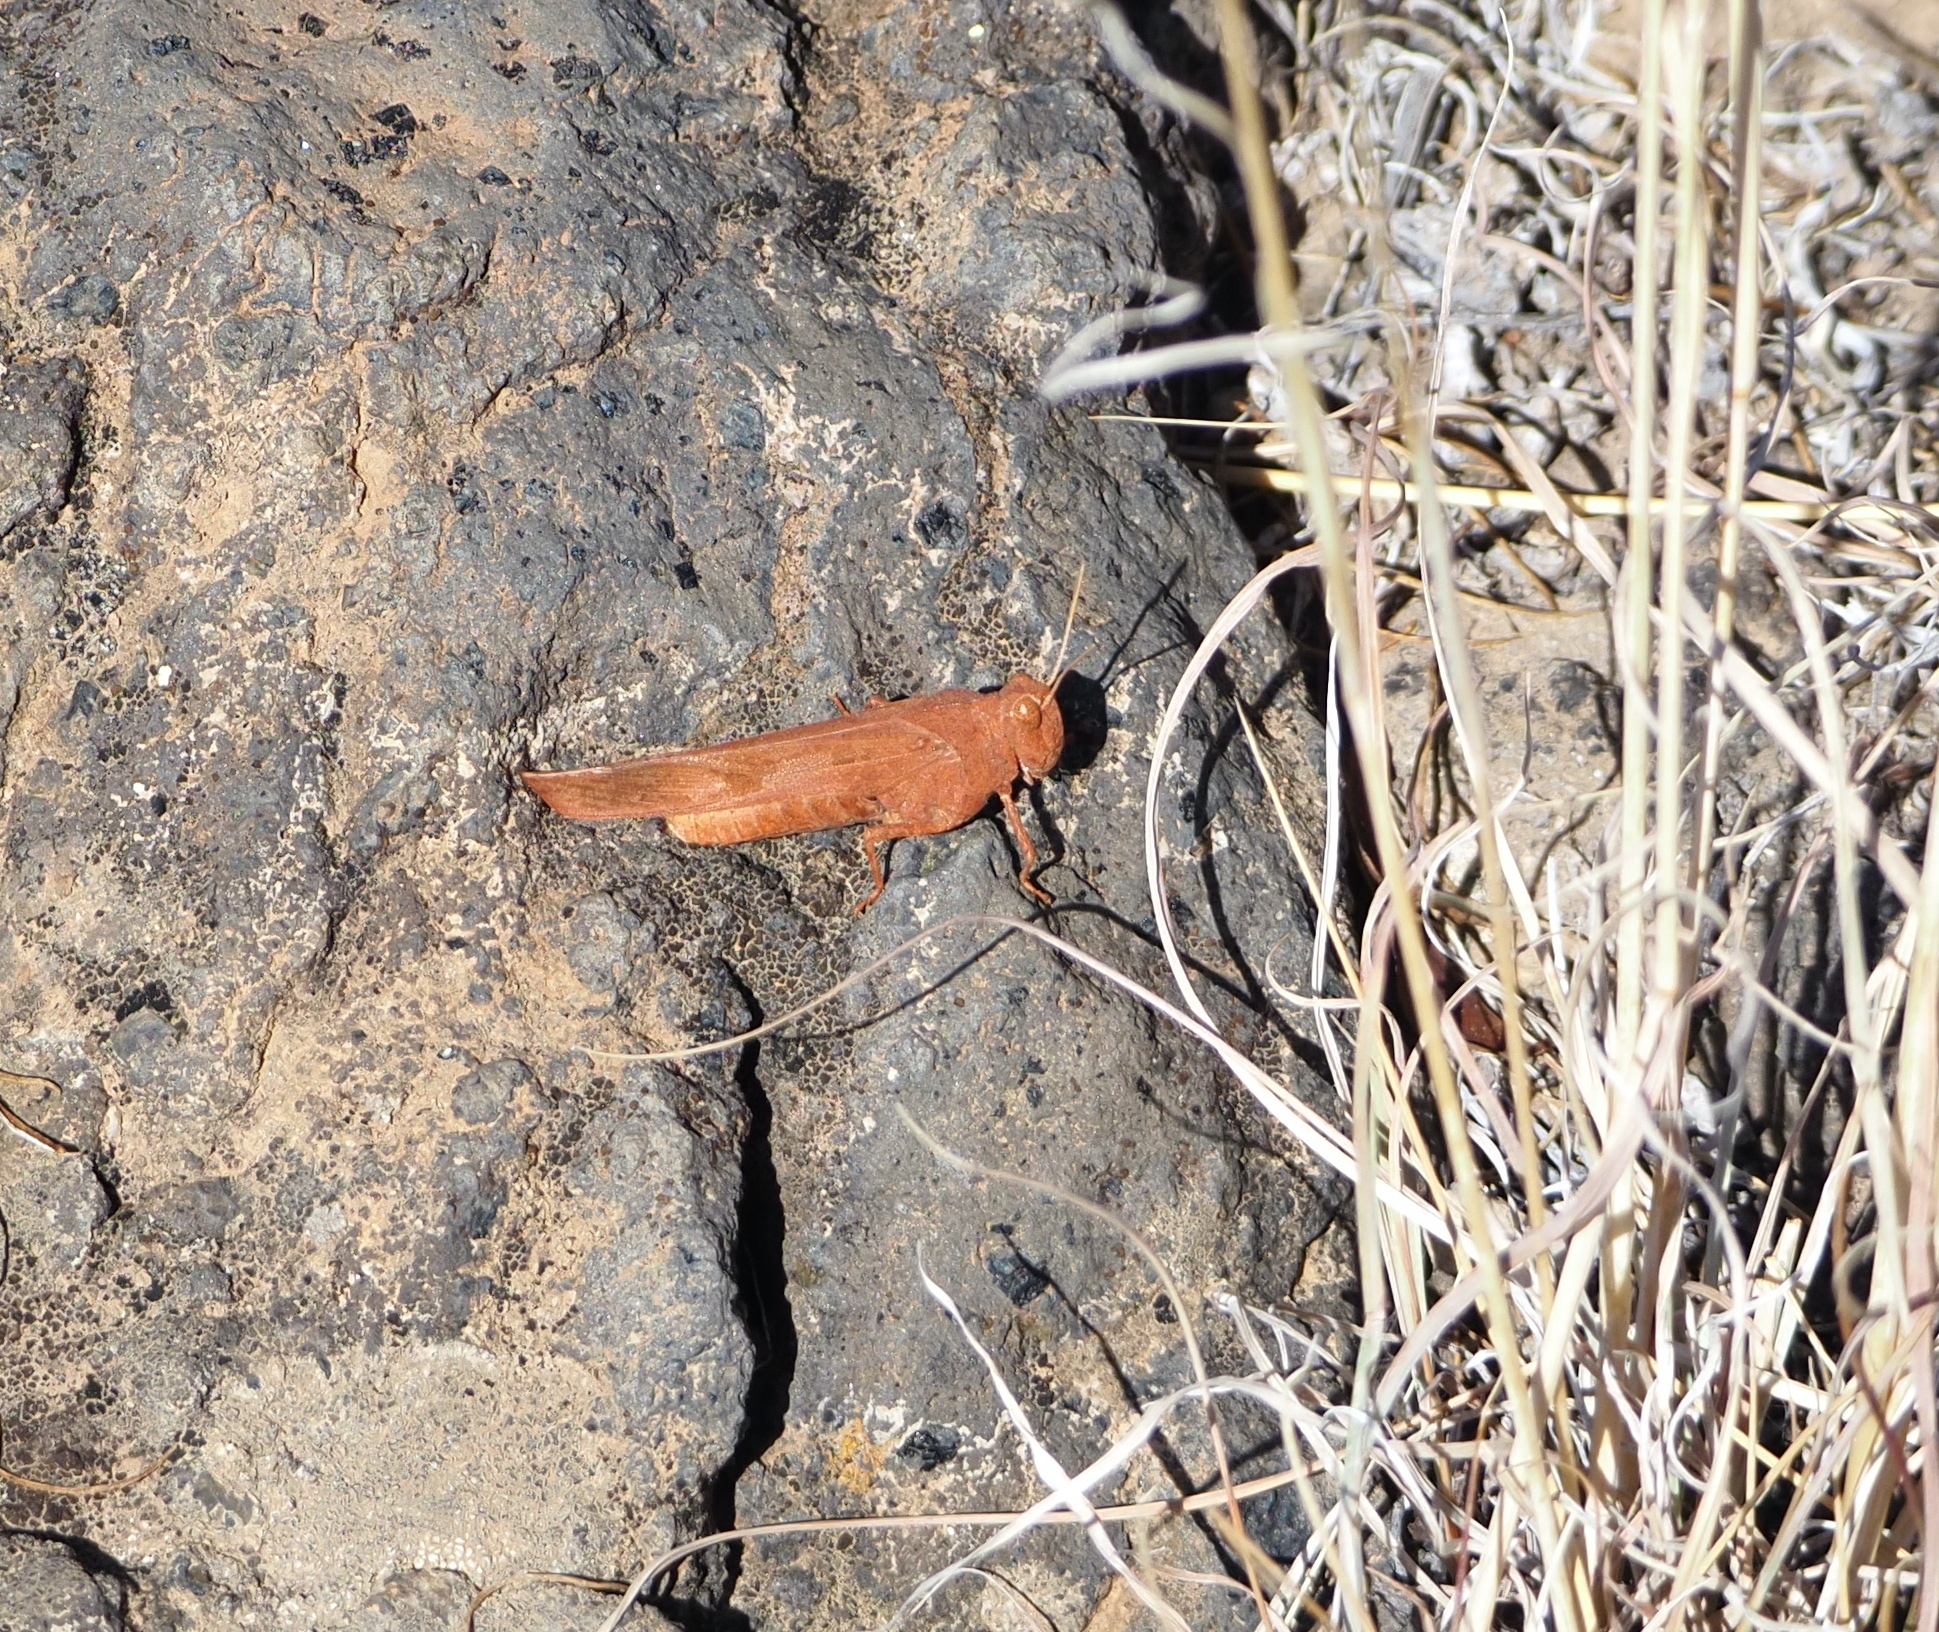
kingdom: Animalia
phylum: Arthropoda
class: Insecta
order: Orthoptera
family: Acrididae
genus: Oedipoda
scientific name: Oedipoda canariensis
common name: Canarian band-winged grasshopper
